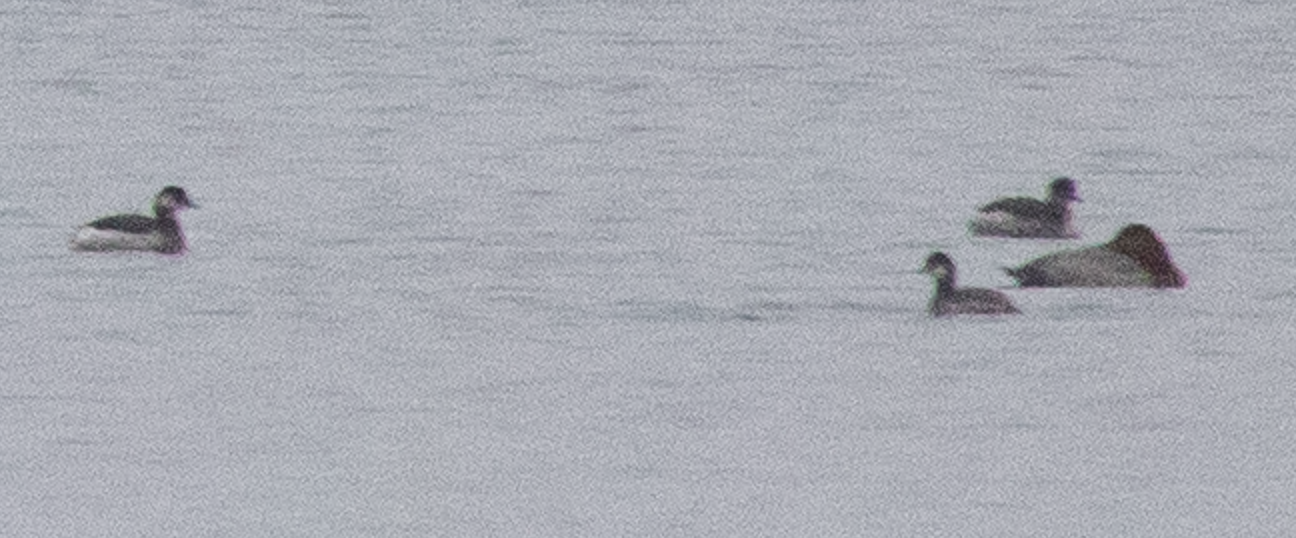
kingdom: Animalia
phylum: Chordata
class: Aves
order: Podicipediformes
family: Podicipedidae
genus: Podiceps
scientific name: Podiceps nigricollis
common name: Black-necked grebe
